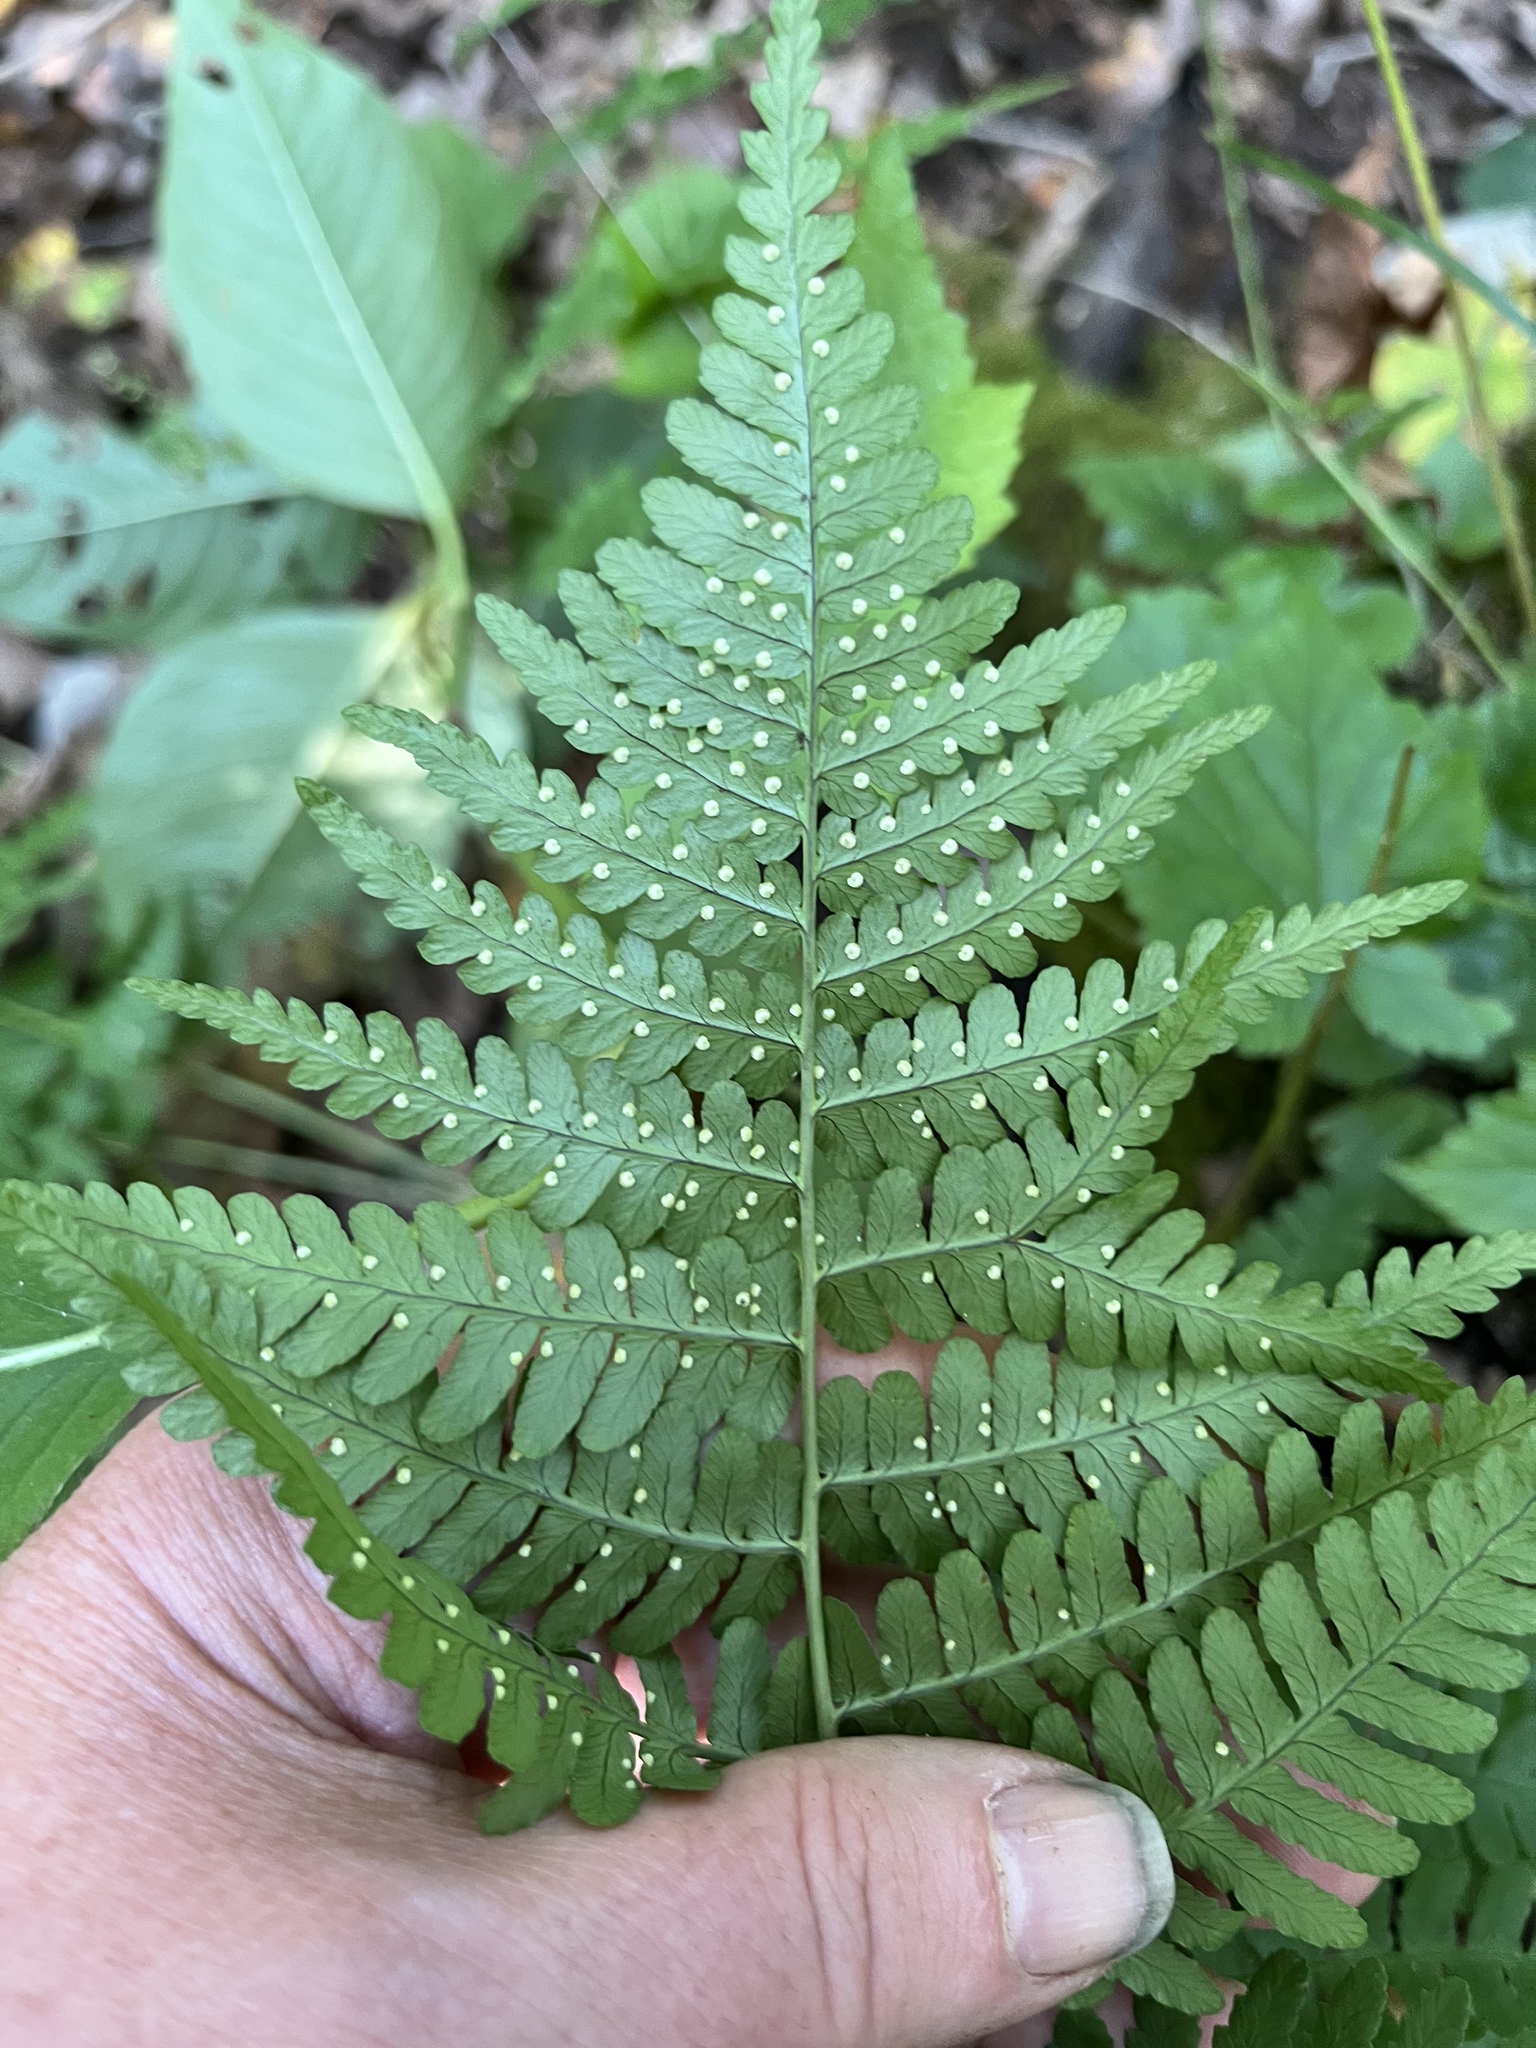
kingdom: Plantae
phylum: Tracheophyta
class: Polypodiopsida
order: Polypodiales
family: Dryopteridaceae
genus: Dryopteris
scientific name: Dryopteris marginalis
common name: Marginal wood fern
